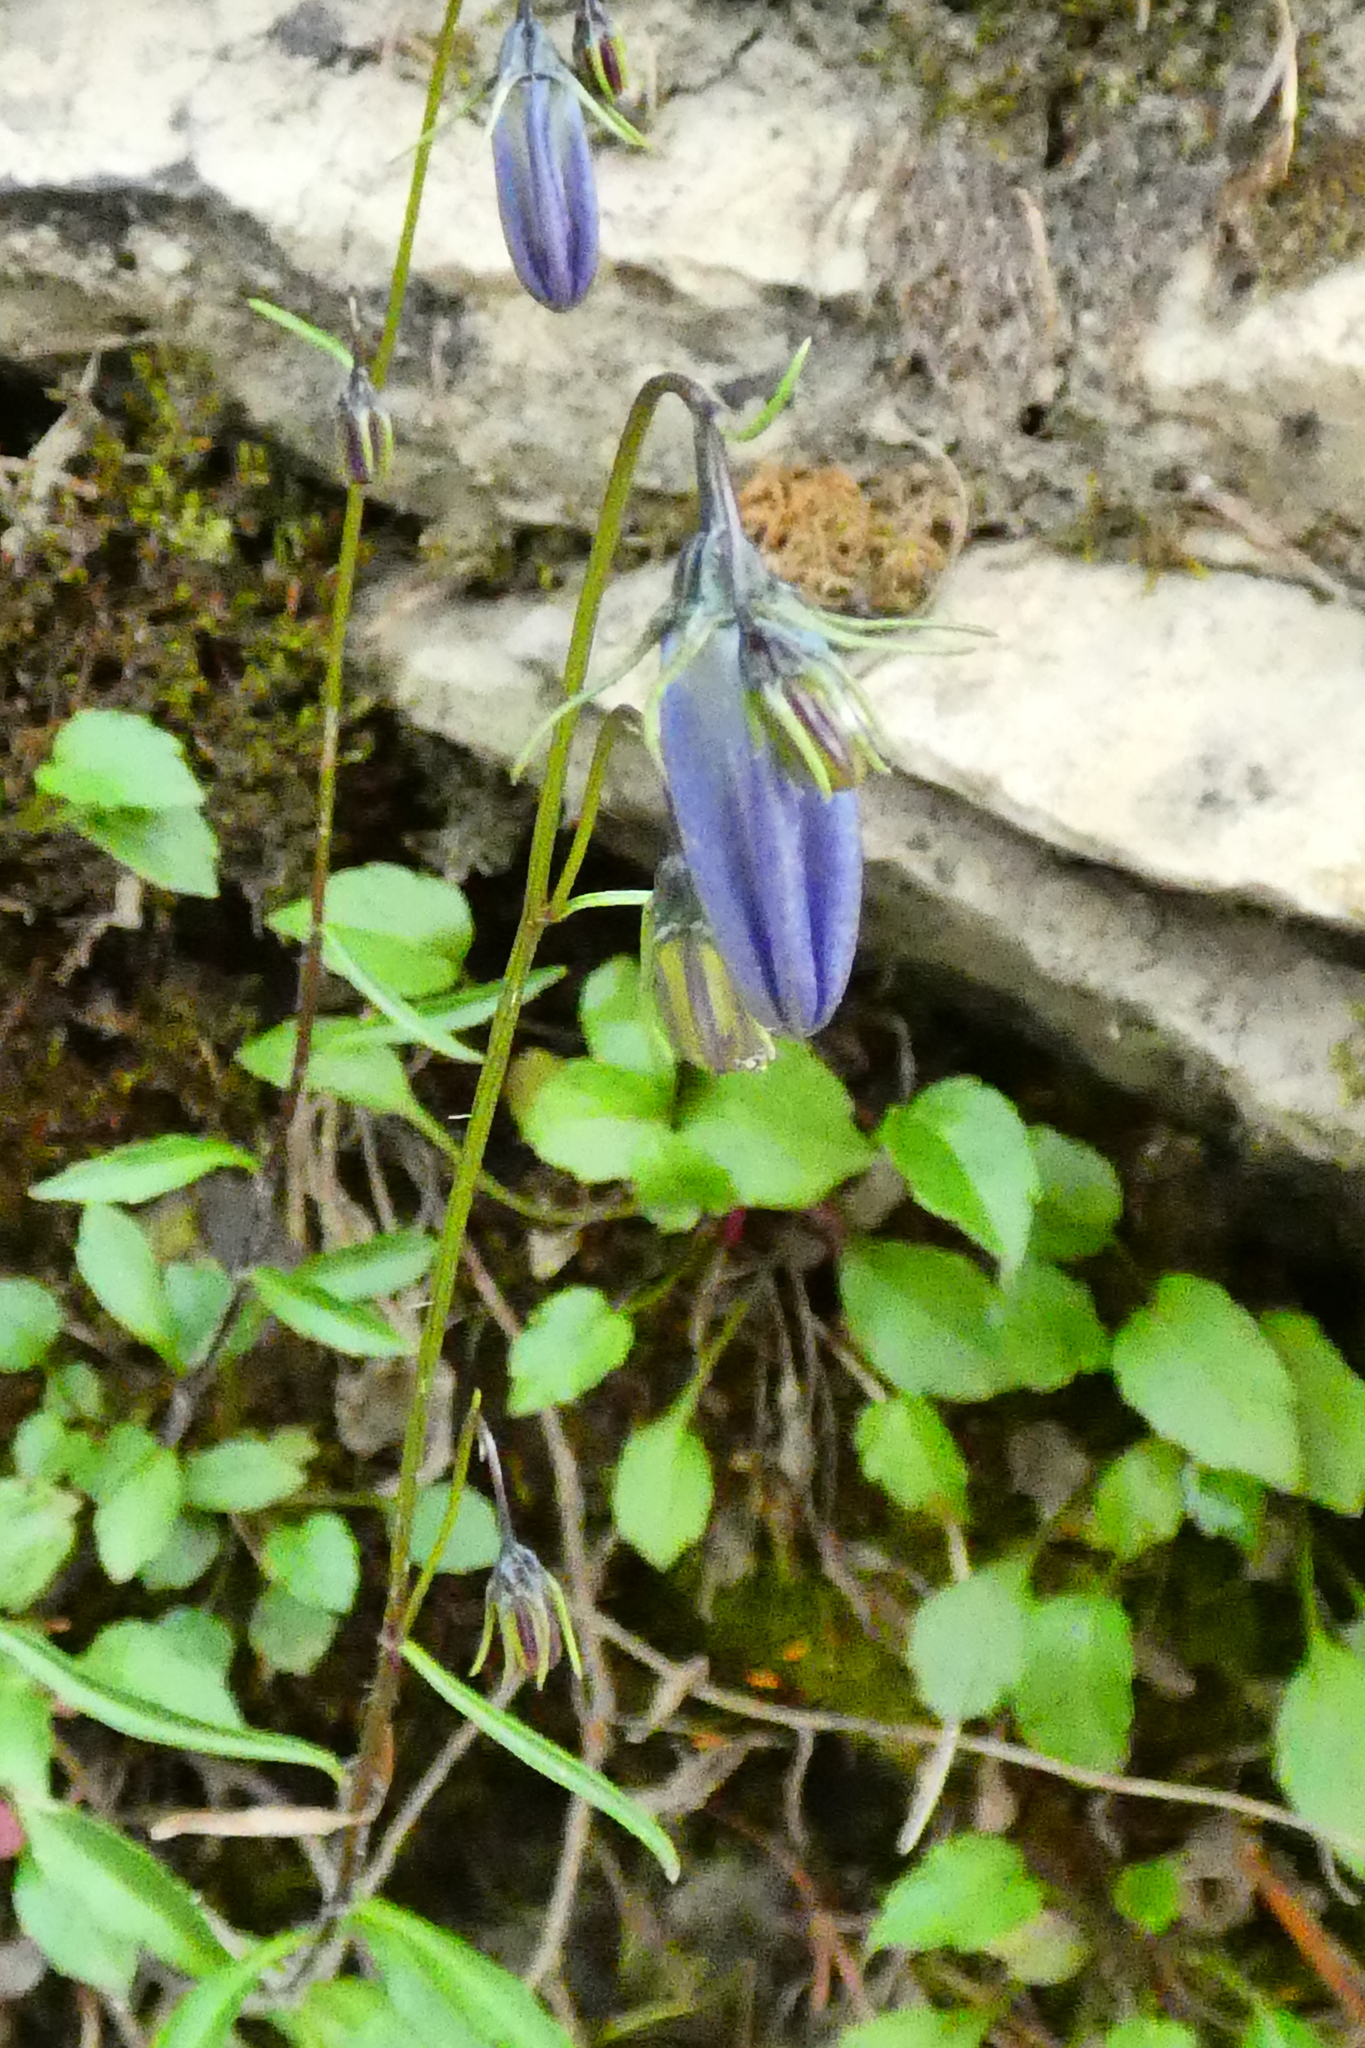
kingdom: Plantae
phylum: Tracheophyta
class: Magnoliopsida
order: Asterales
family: Campanulaceae
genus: Campanula
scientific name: Campanula cochleariifolia
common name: Fairies'-thimbles
